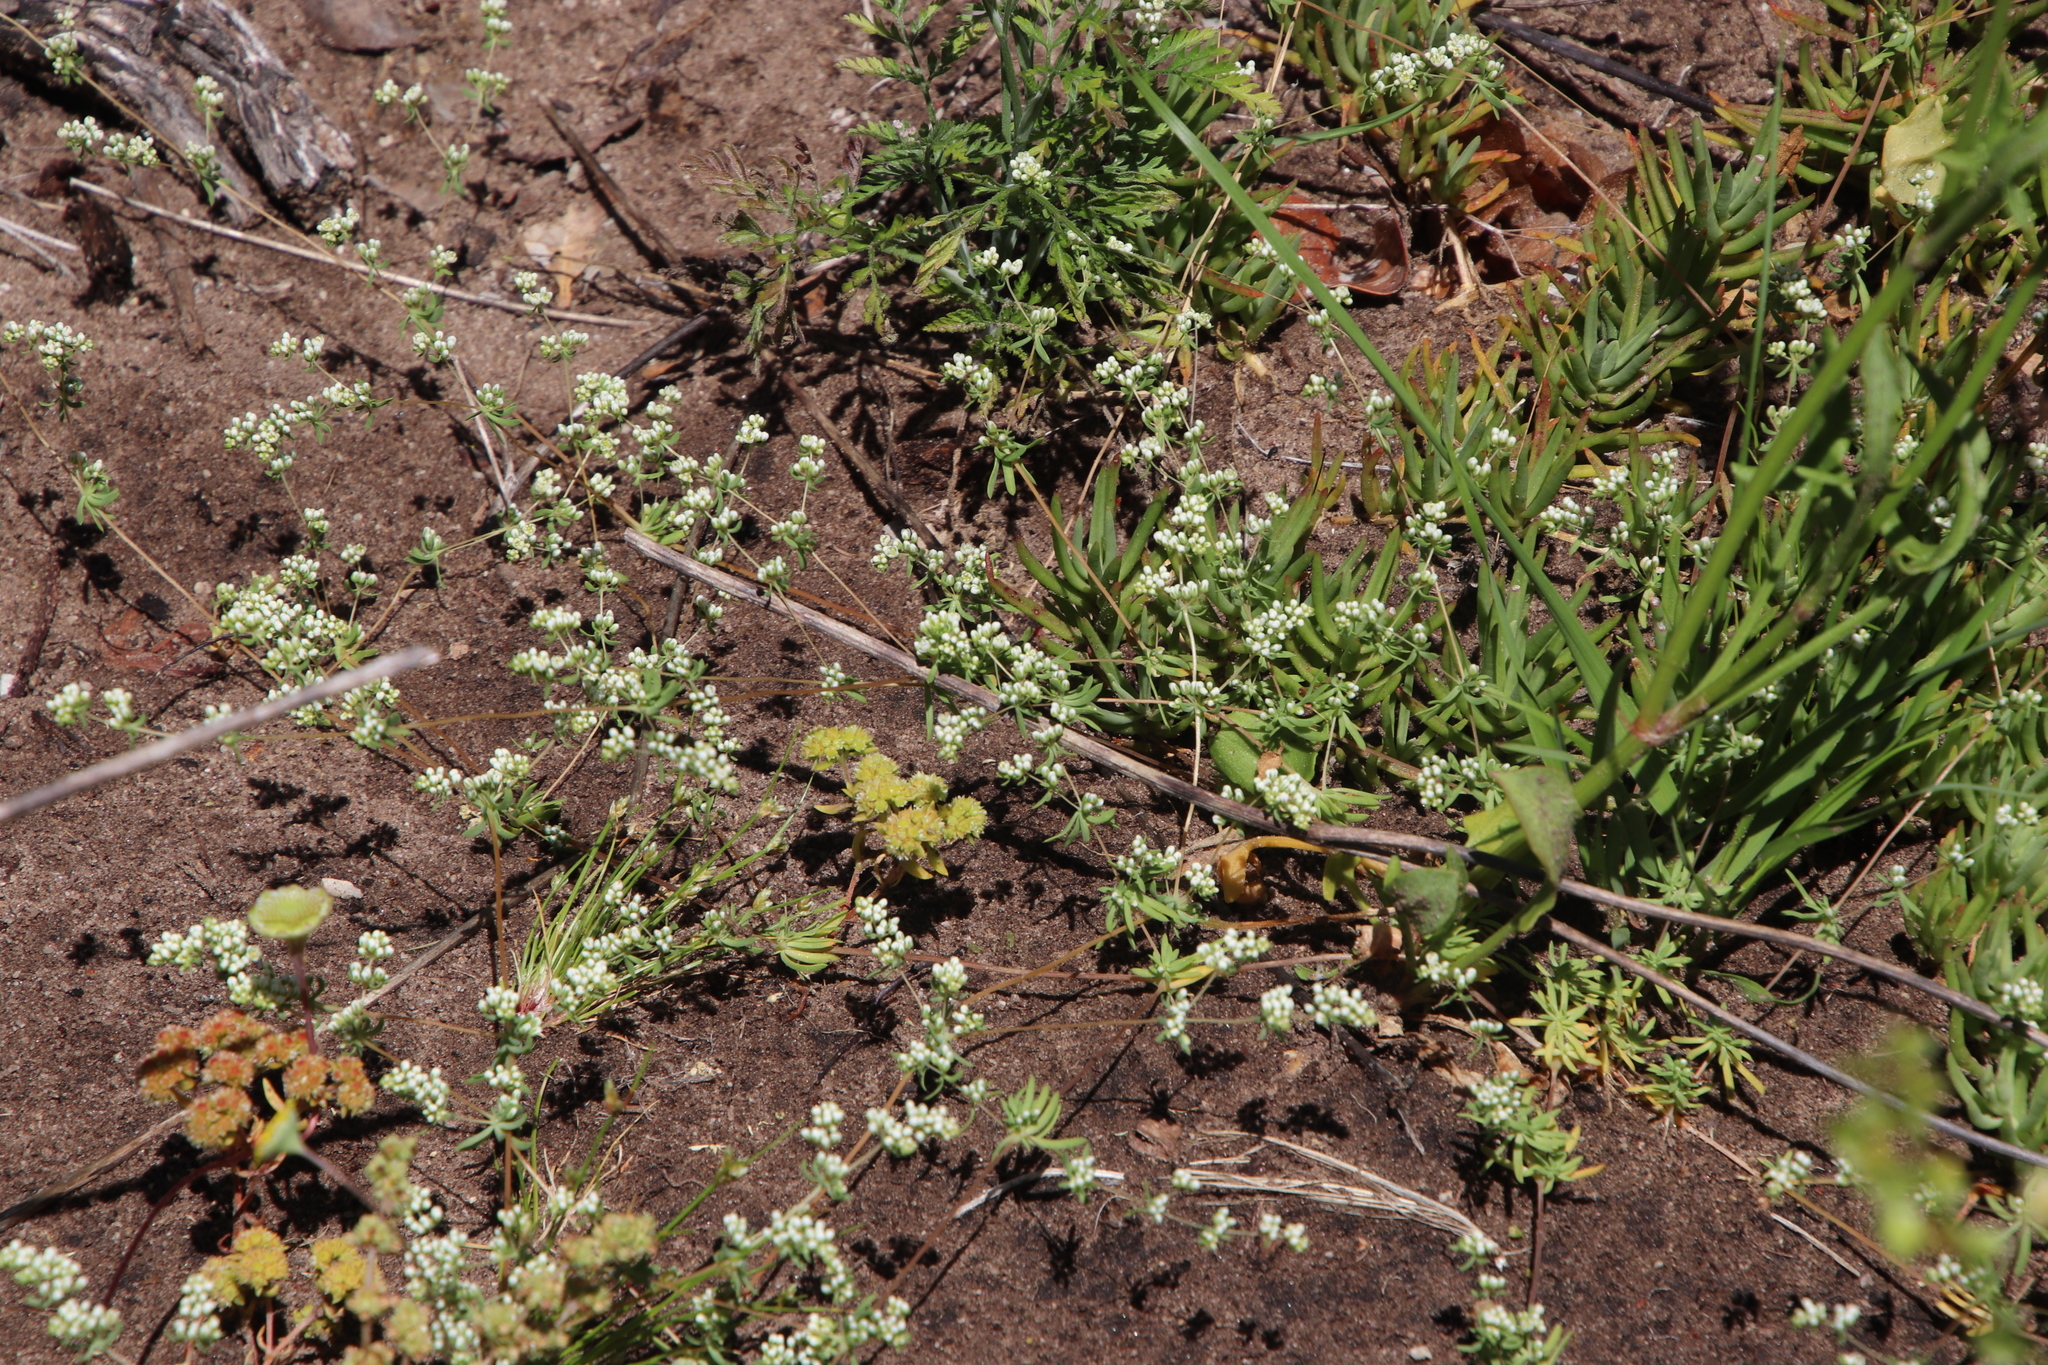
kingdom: Plantae
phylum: Tracheophyta
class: Magnoliopsida
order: Caryophyllales
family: Molluginaceae
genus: Adenogramma
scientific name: Adenogramma glomerata
